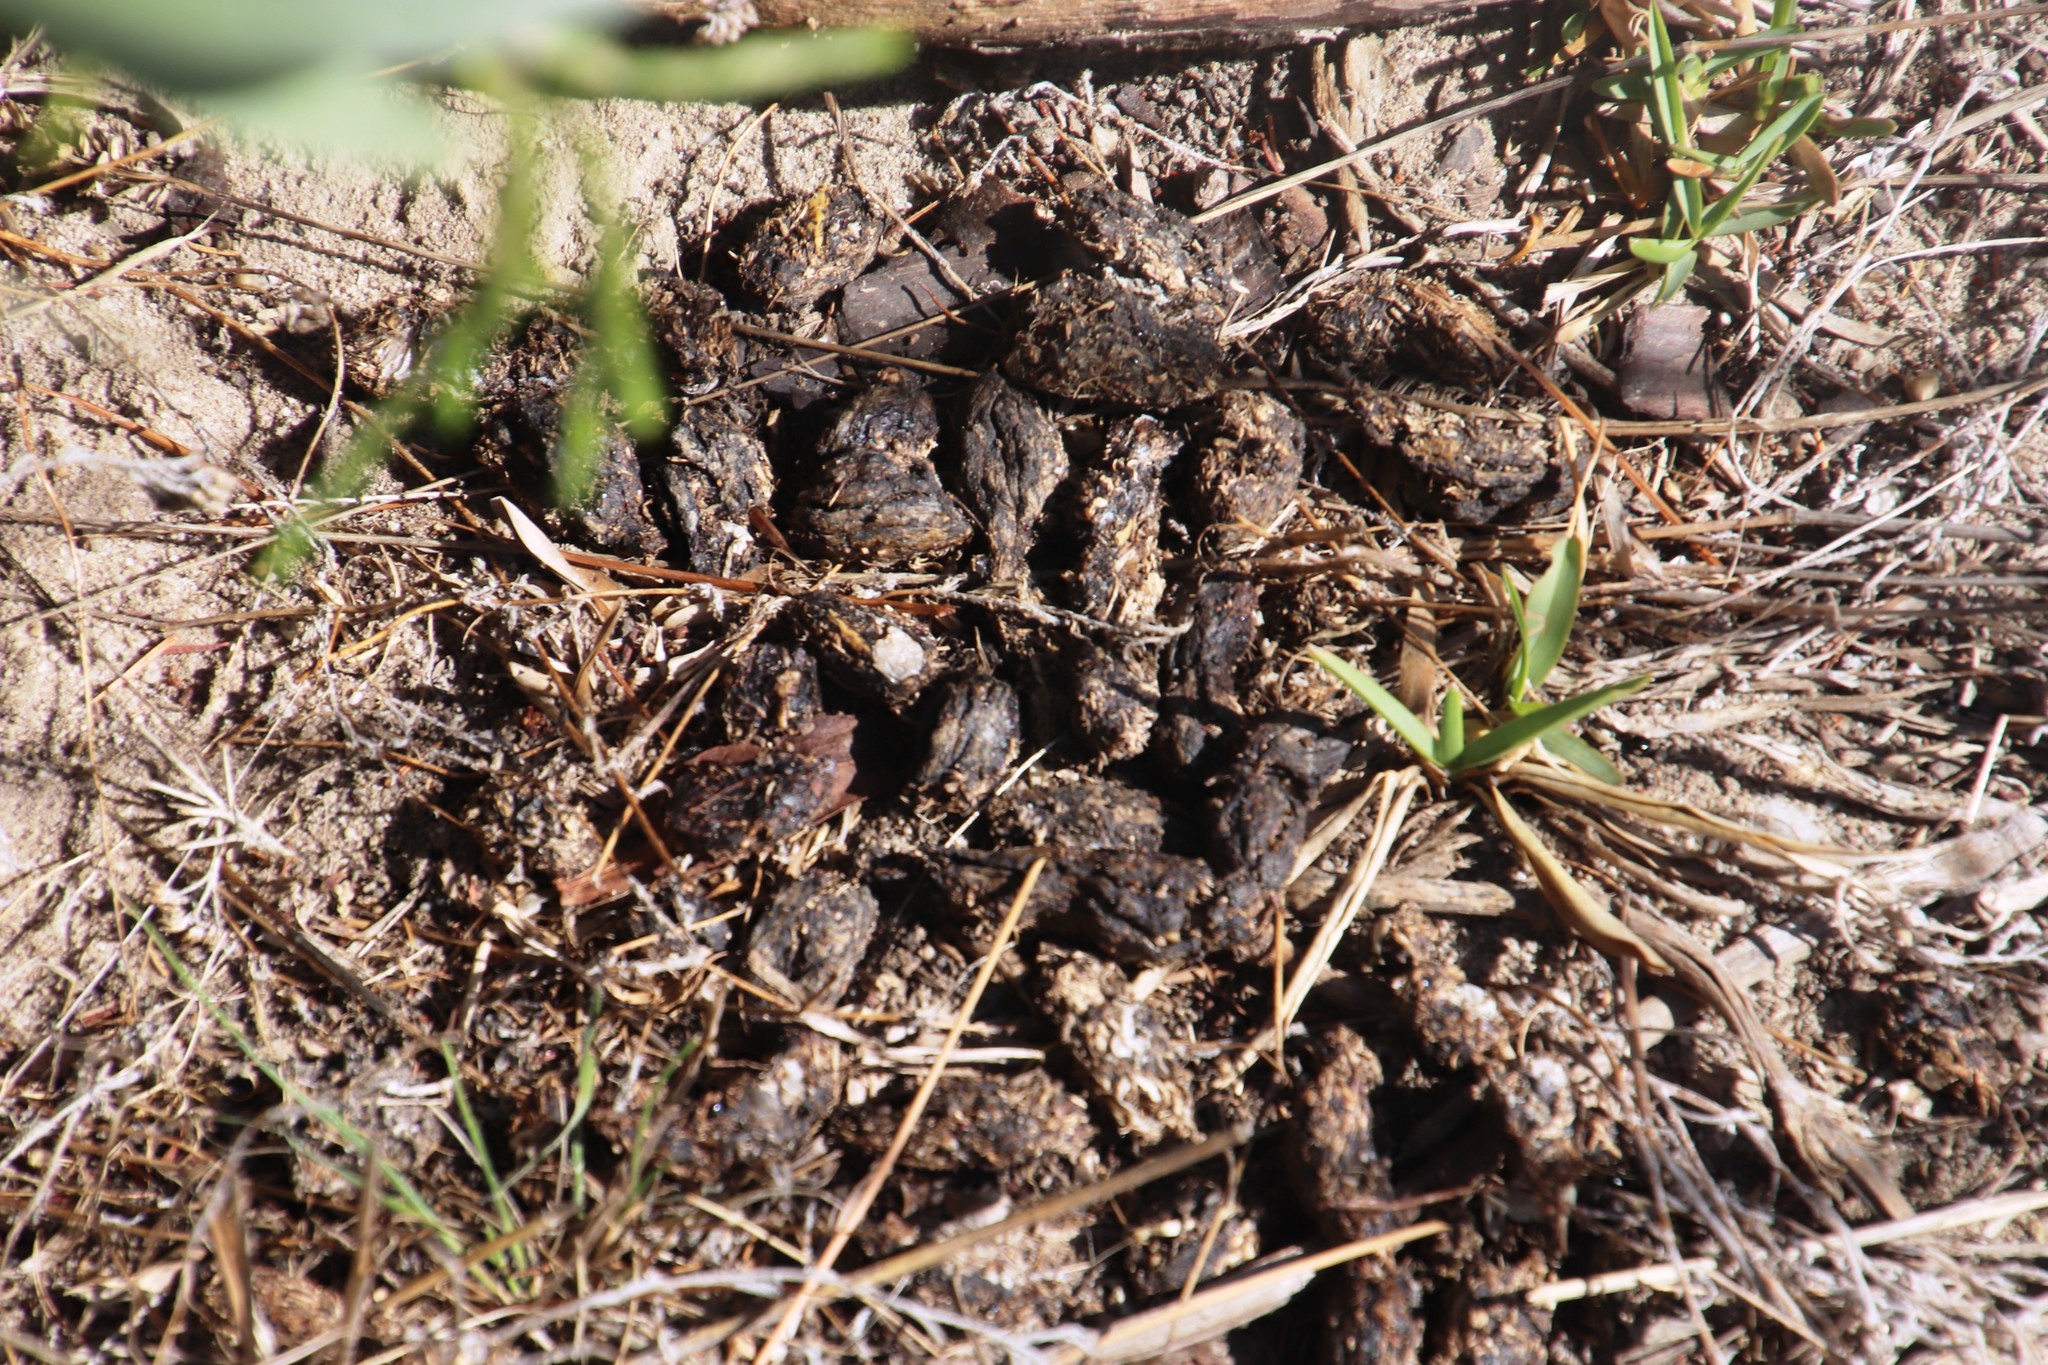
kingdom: Animalia
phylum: Chordata
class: Mammalia
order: Rodentia
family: Hystricidae
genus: Hystrix
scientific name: Hystrix africaeaustralis
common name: Cape porcupine
